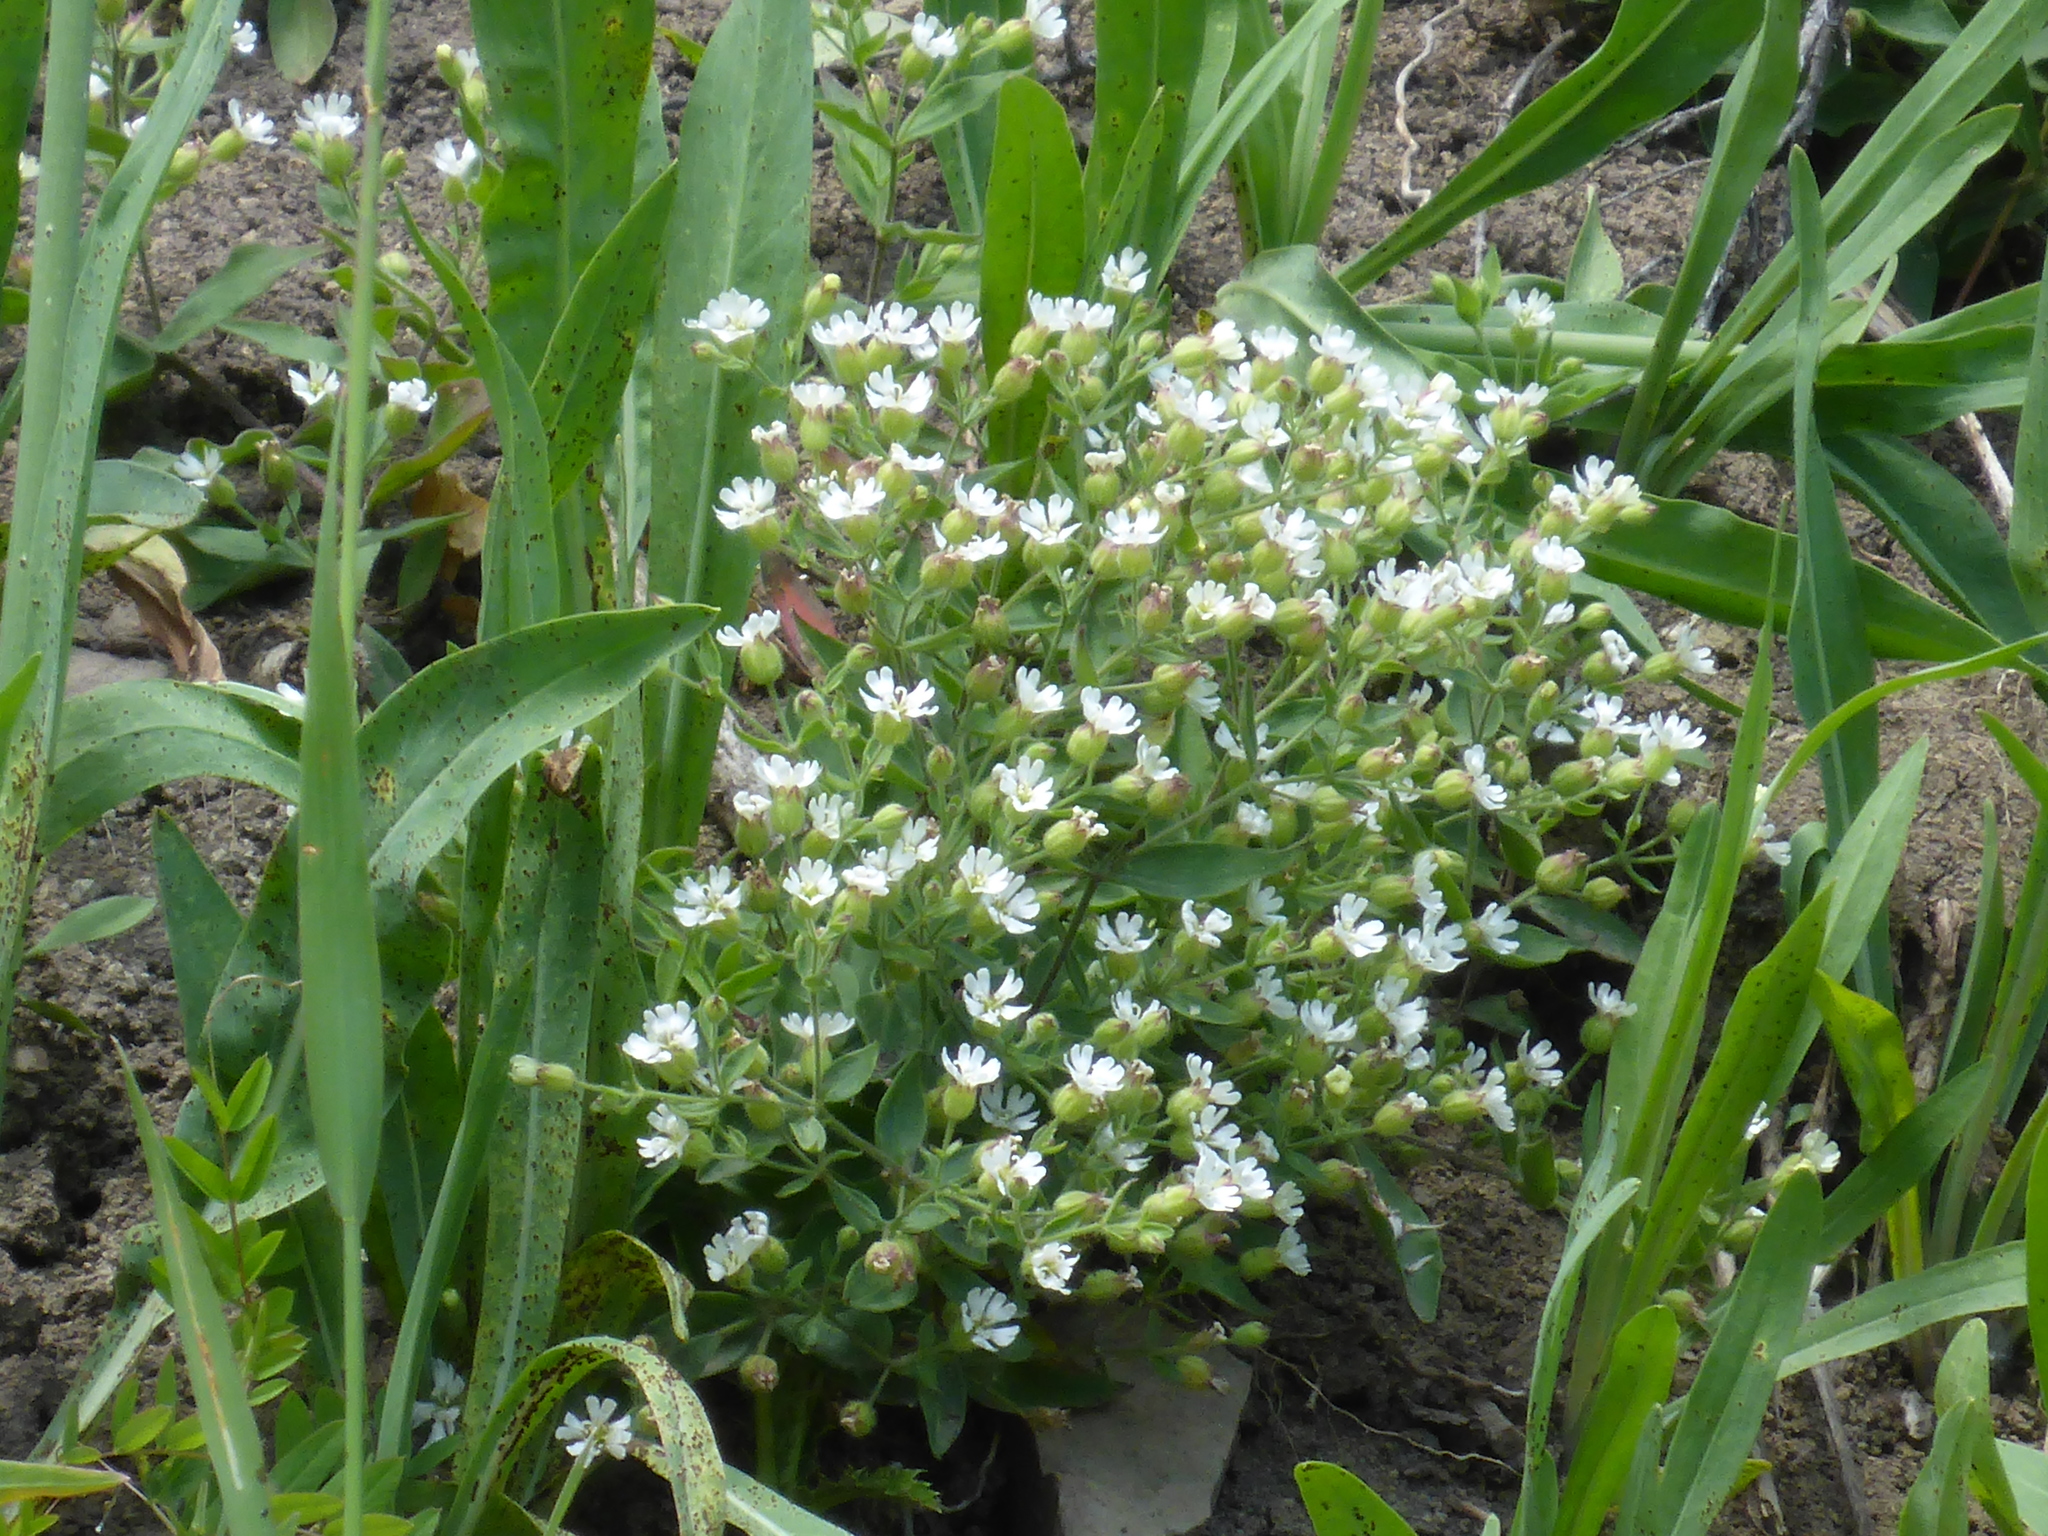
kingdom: Plantae
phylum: Tracheophyta
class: Magnoliopsida
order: Caryophyllales
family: Caryophyllaceae
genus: Silene
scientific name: Silene menziesii
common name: Menzies's catchfly
